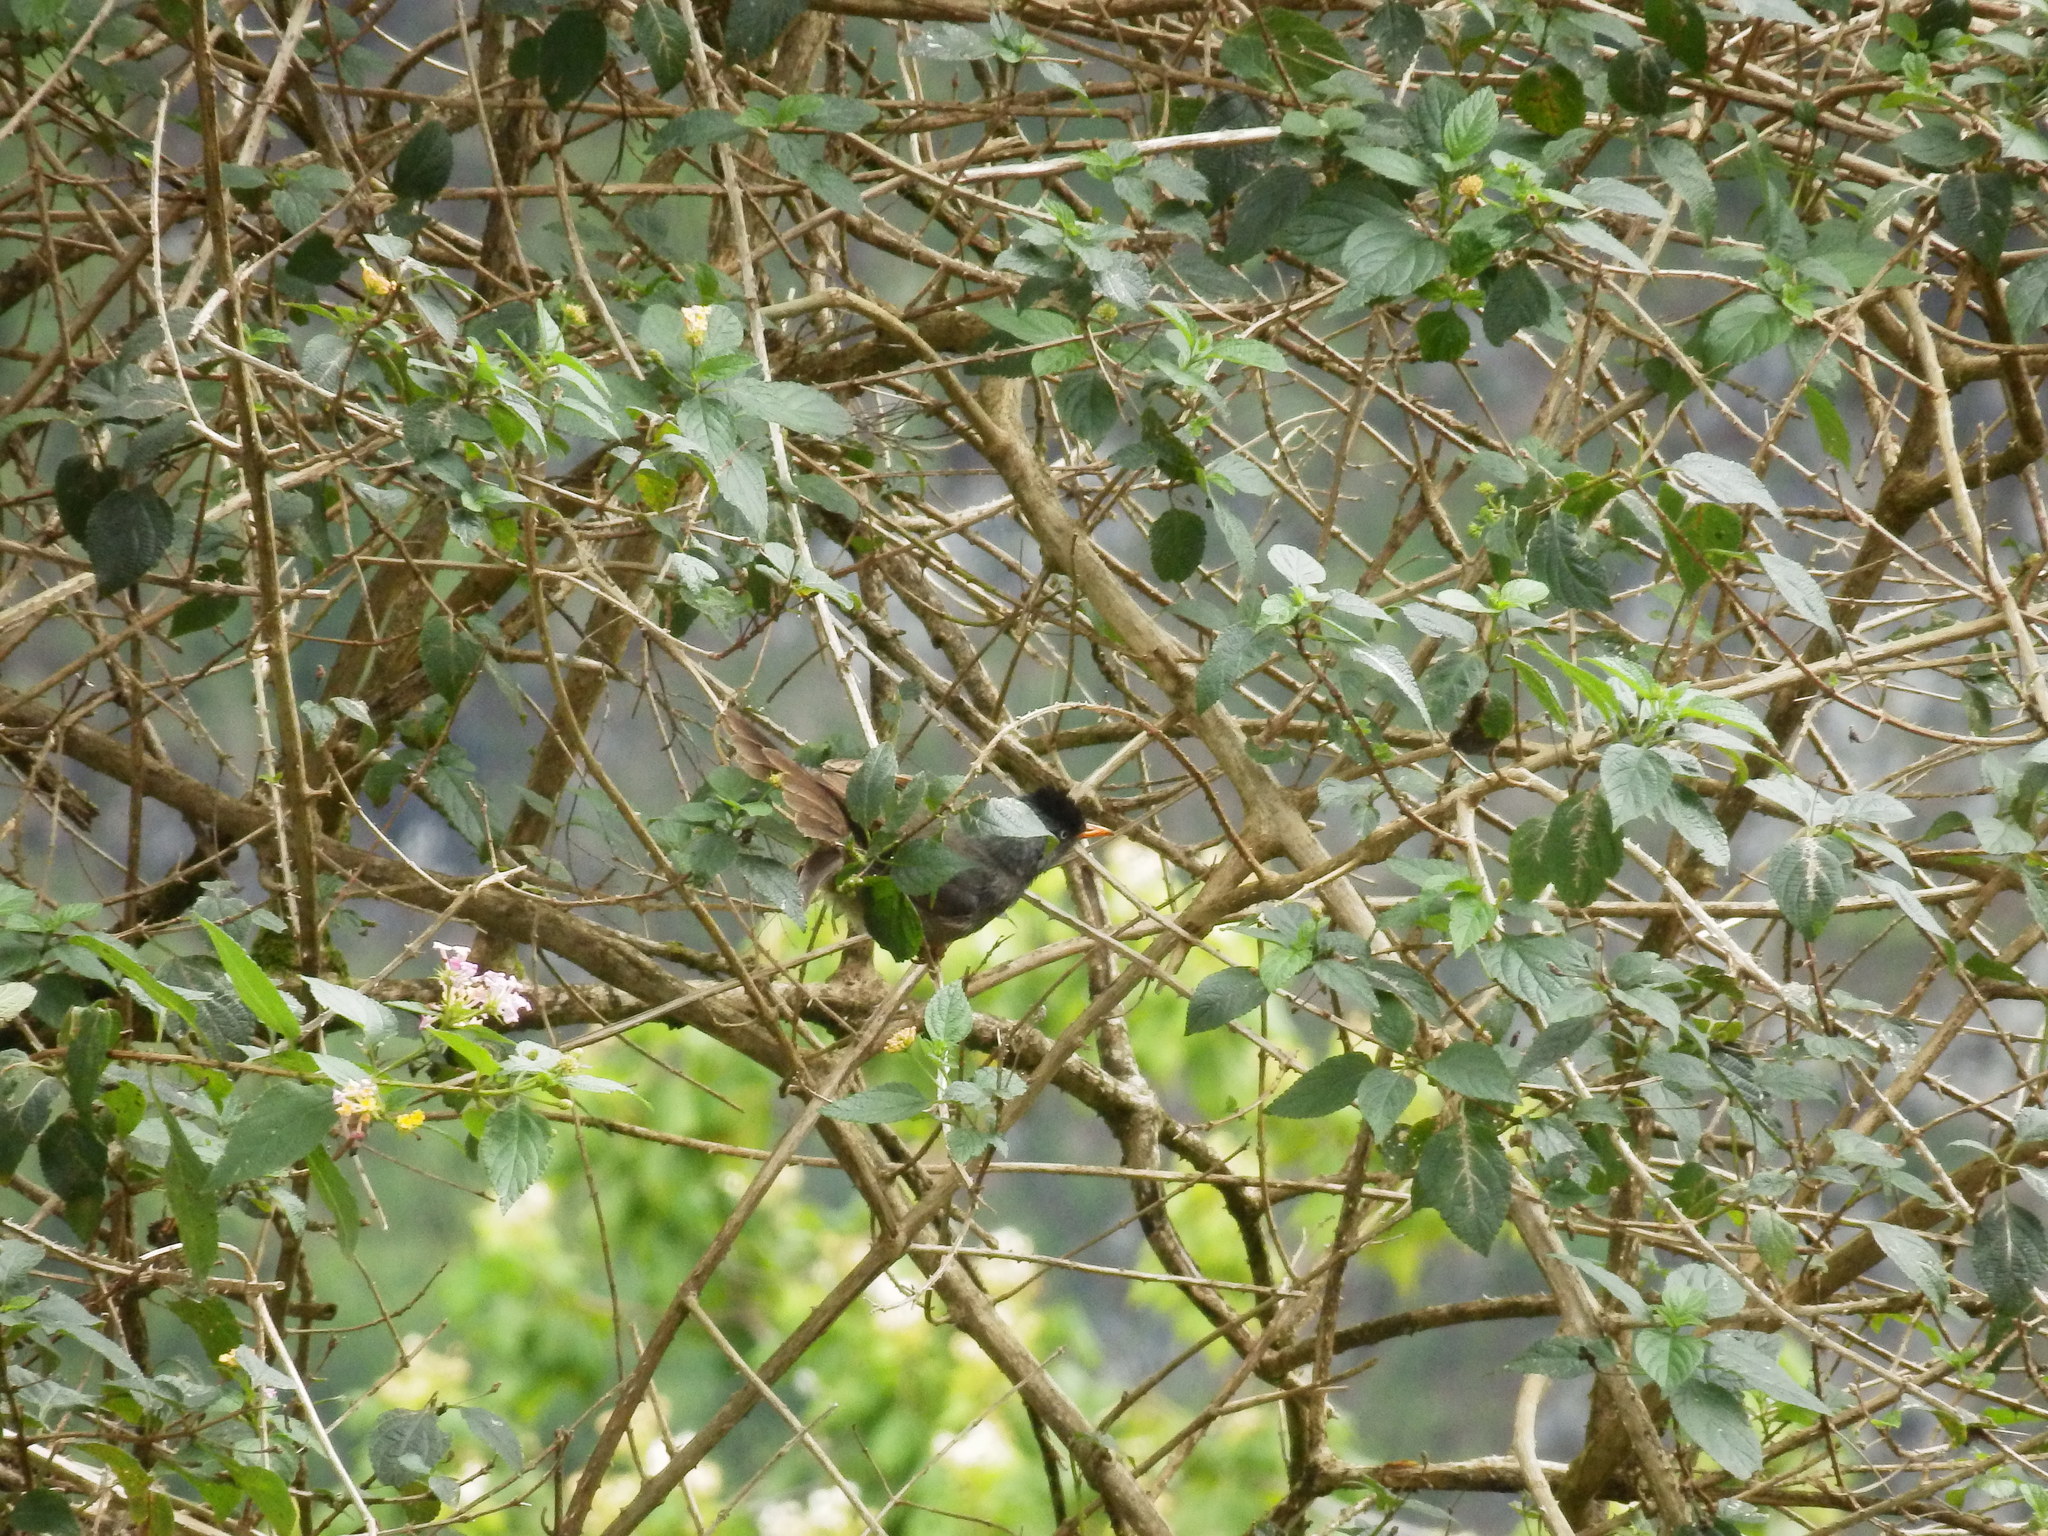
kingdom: Animalia
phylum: Chordata
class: Aves
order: Passeriformes
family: Pycnonotidae
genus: Hypsipetes
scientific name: Hypsipetes borbonicus
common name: Reunion bulbul
